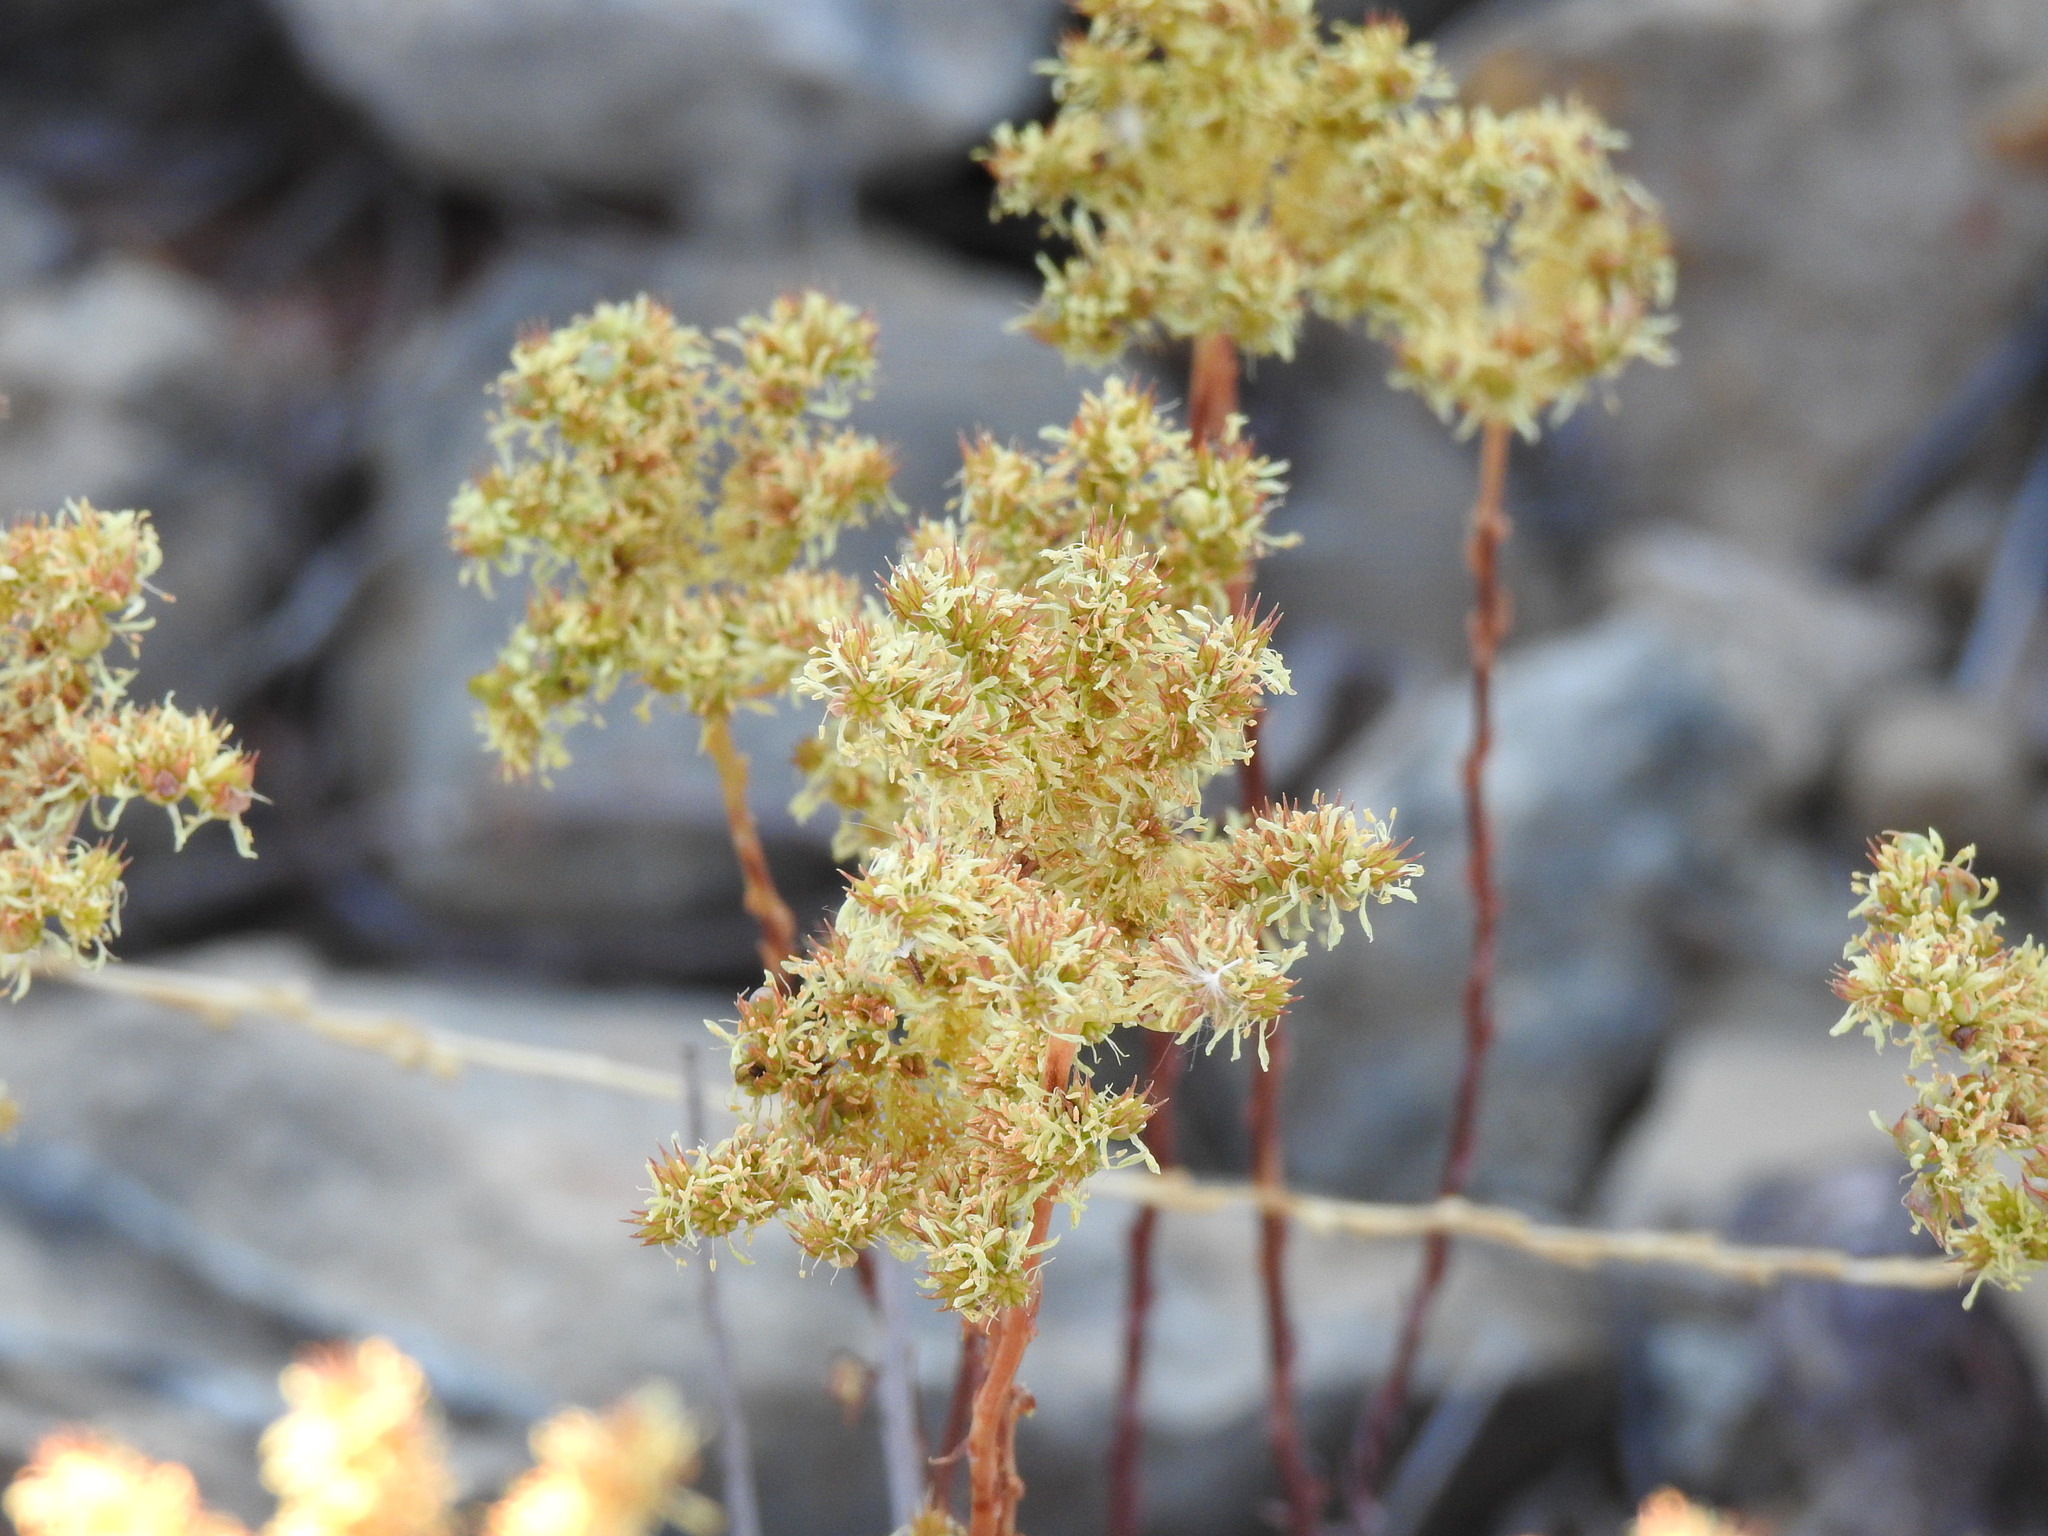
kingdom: Plantae
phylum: Tracheophyta
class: Magnoliopsida
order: Saxifragales
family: Crassulaceae
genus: Petrosedum
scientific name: Petrosedum sediforme
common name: Pale stonecrop
